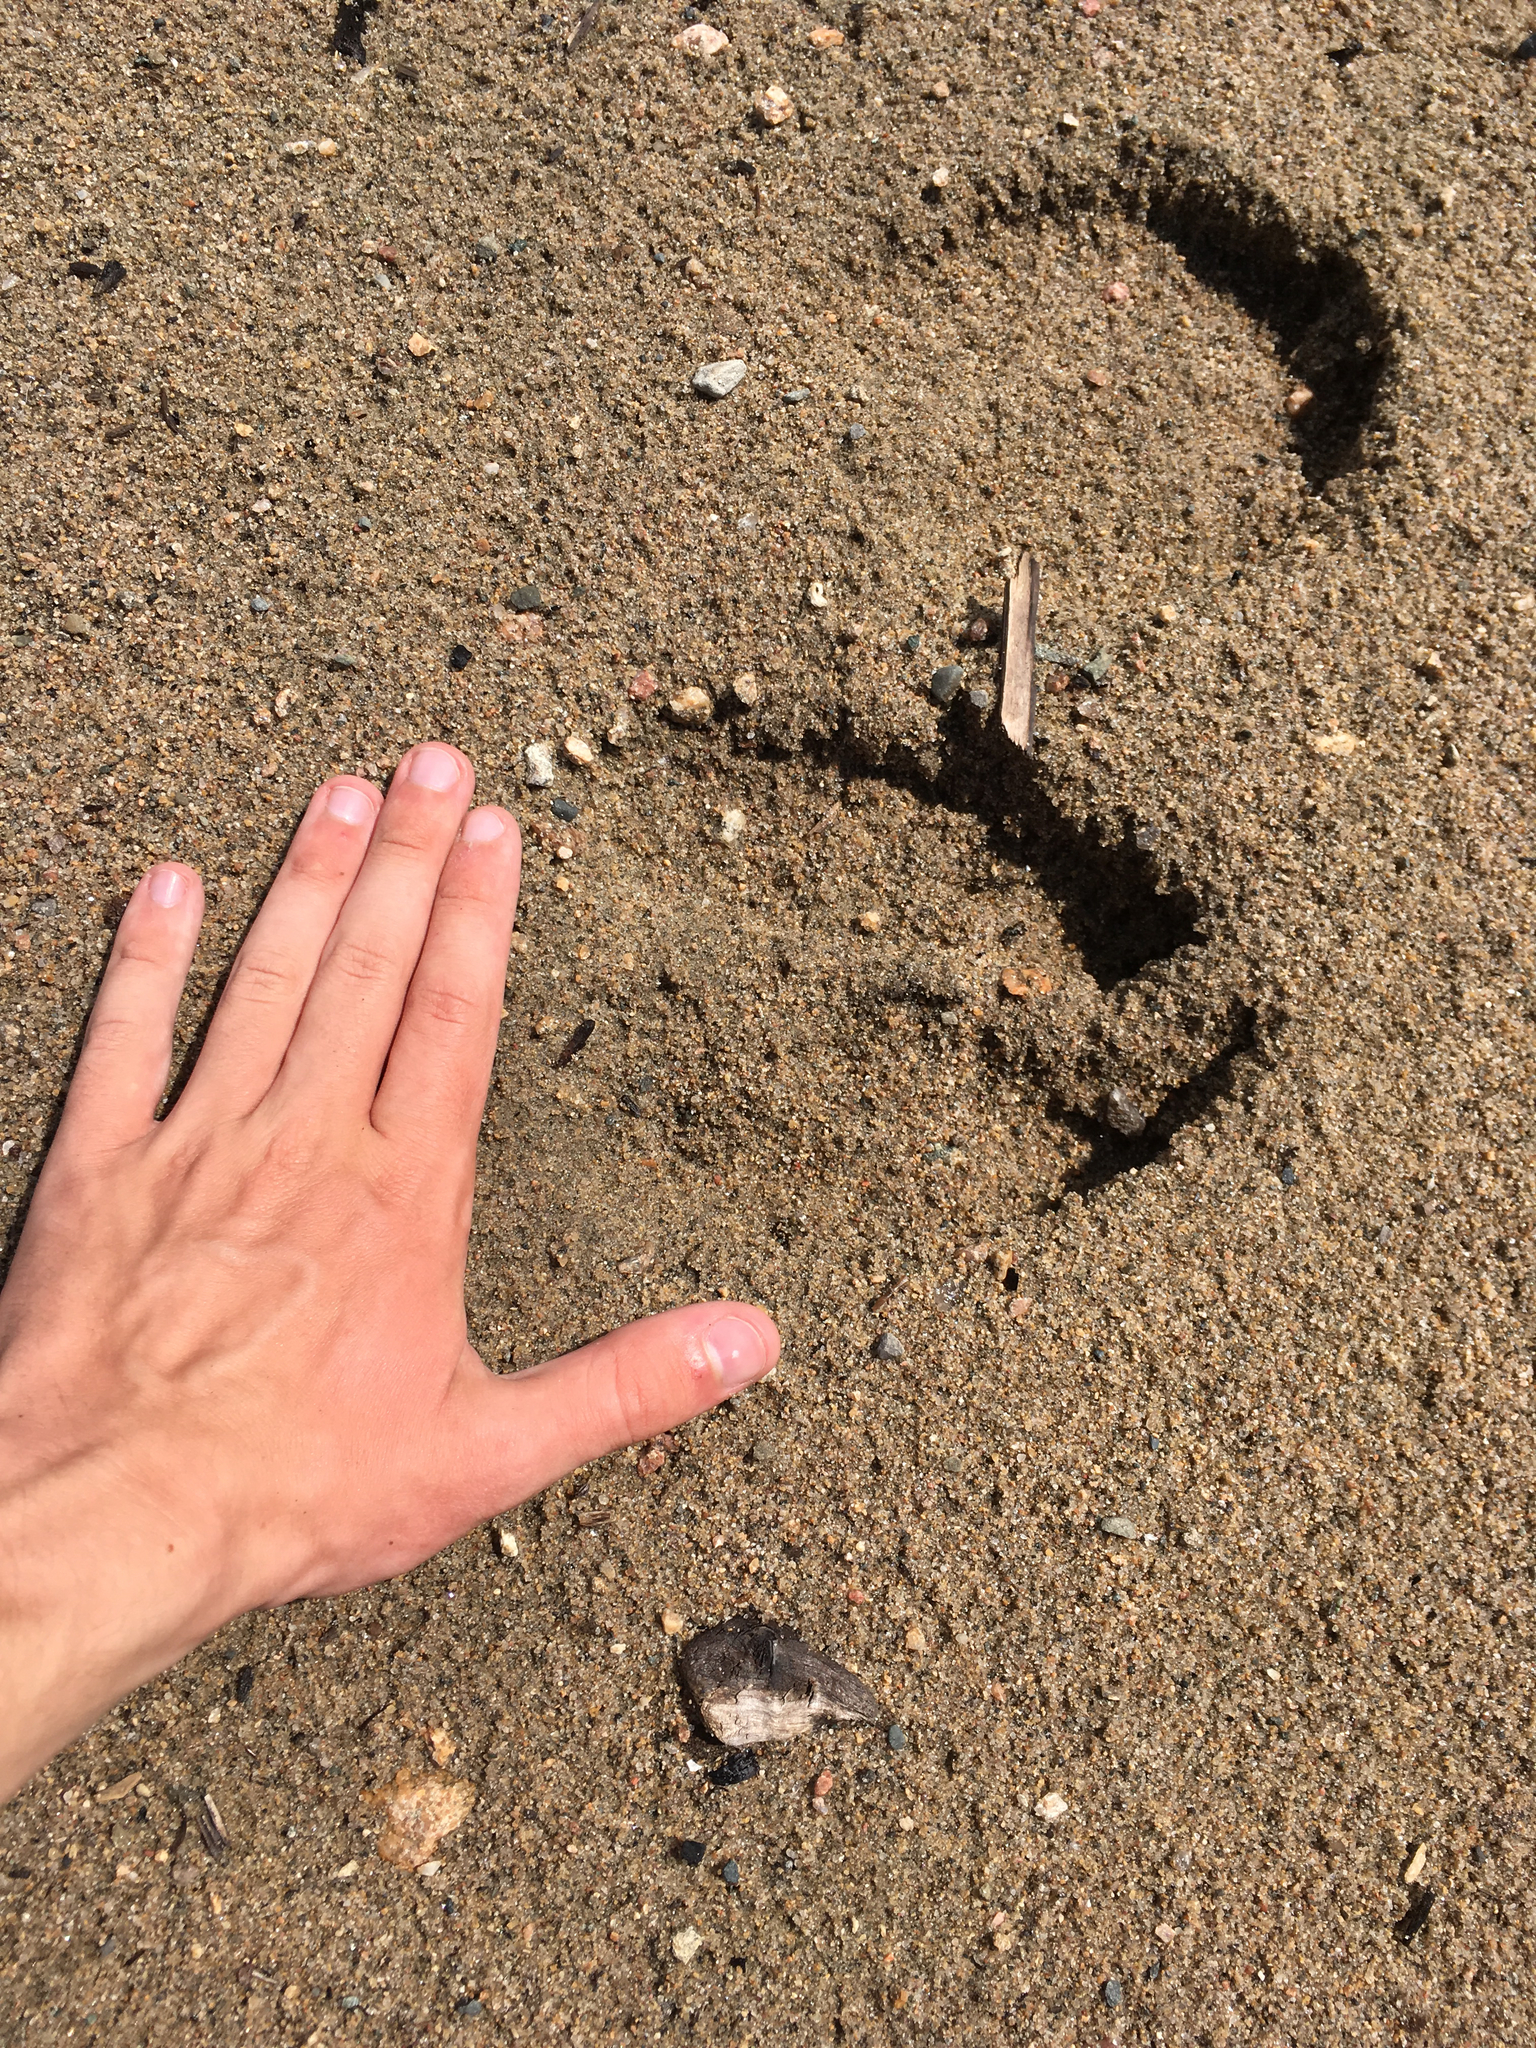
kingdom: Animalia
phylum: Chordata
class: Mammalia
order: Artiodactyla
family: Cervidae
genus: Alces
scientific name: Alces alces
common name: Moose
